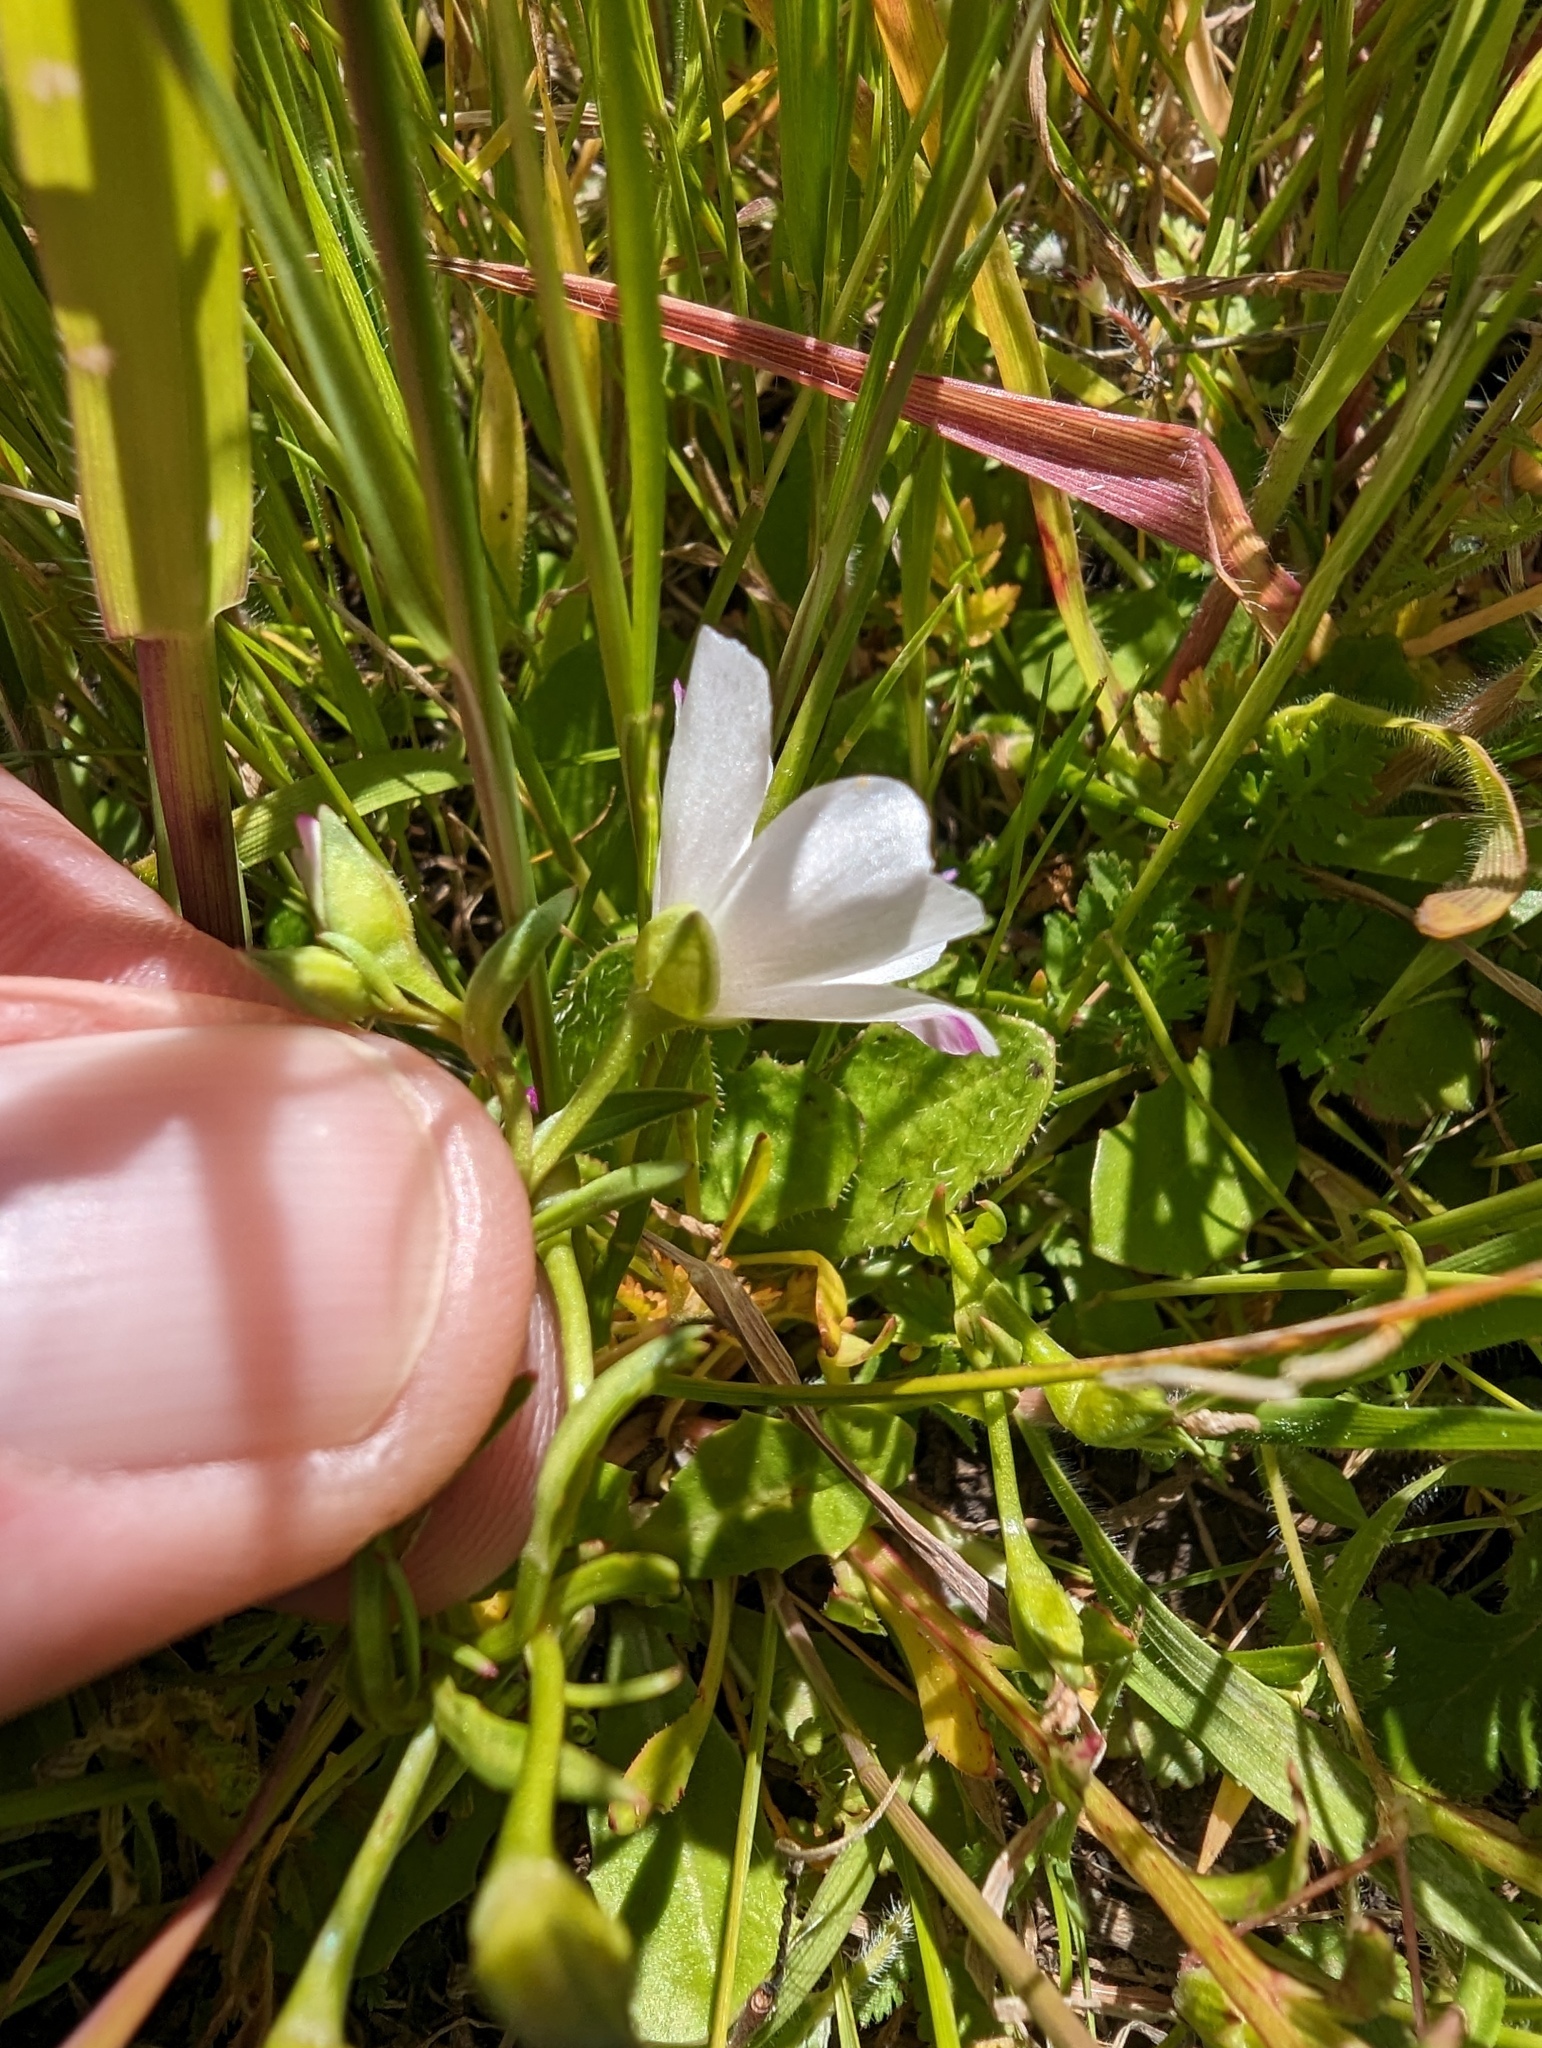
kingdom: Plantae
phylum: Tracheophyta
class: Magnoliopsida
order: Caryophyllales
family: Montiaceae
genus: Calandrinia
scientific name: Calandrinia menziesii
